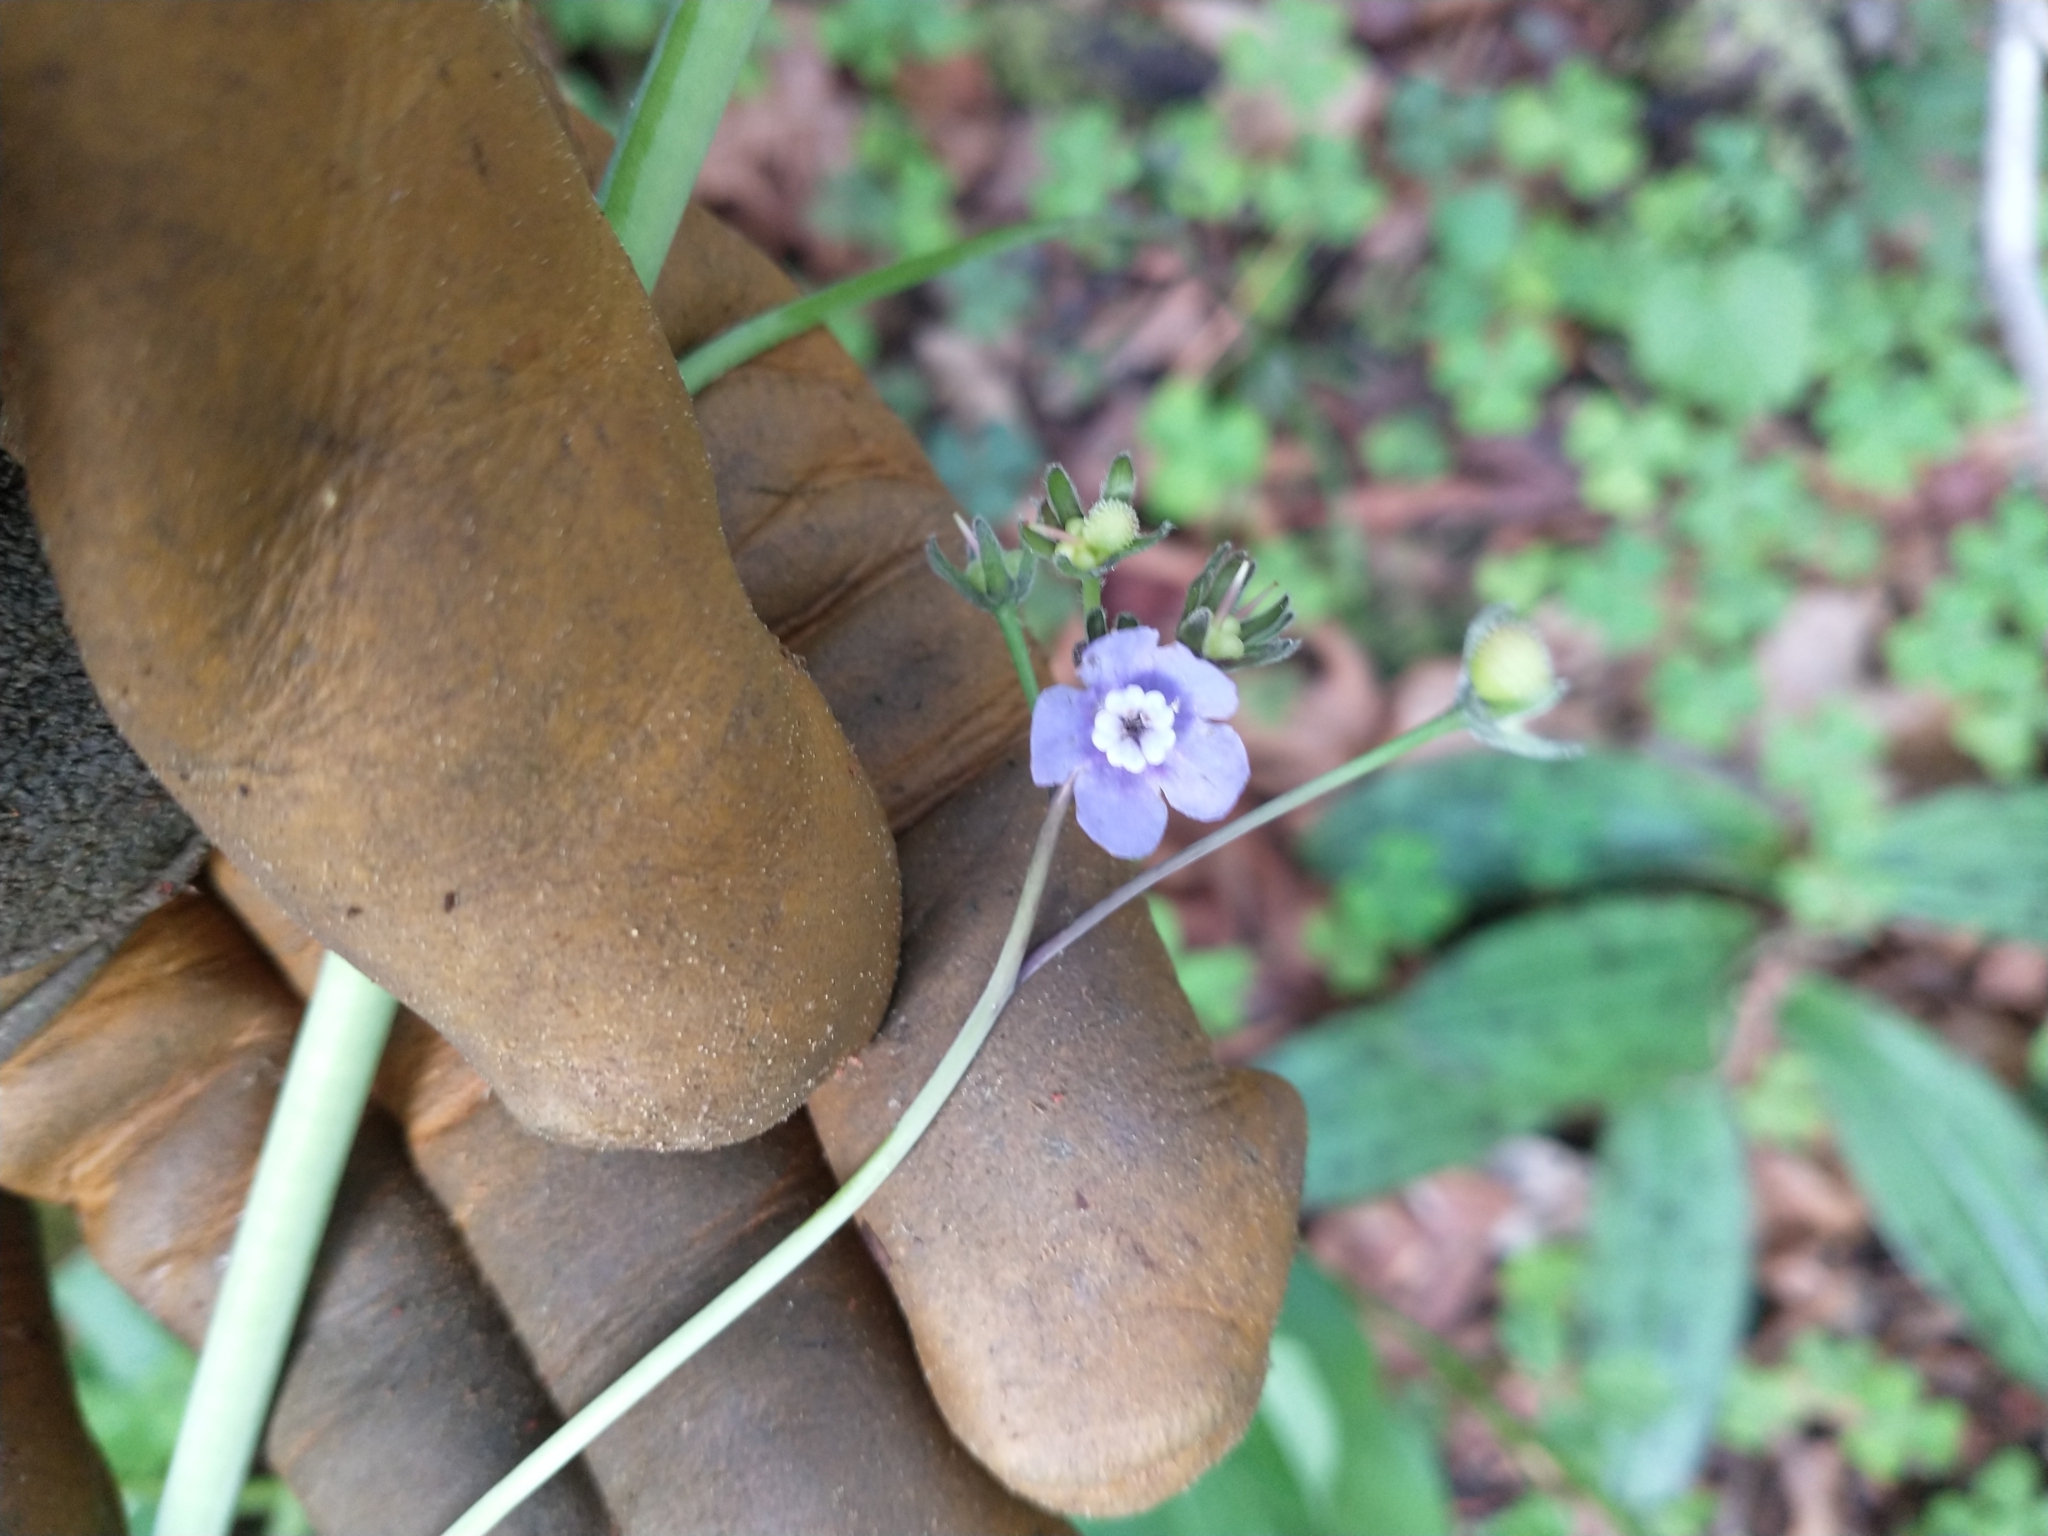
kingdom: Plantae
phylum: Tracheophyta
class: Magnoliopsida
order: Boraginales
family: Boraginaceae
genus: Adelinia
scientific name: Adelinia grande
